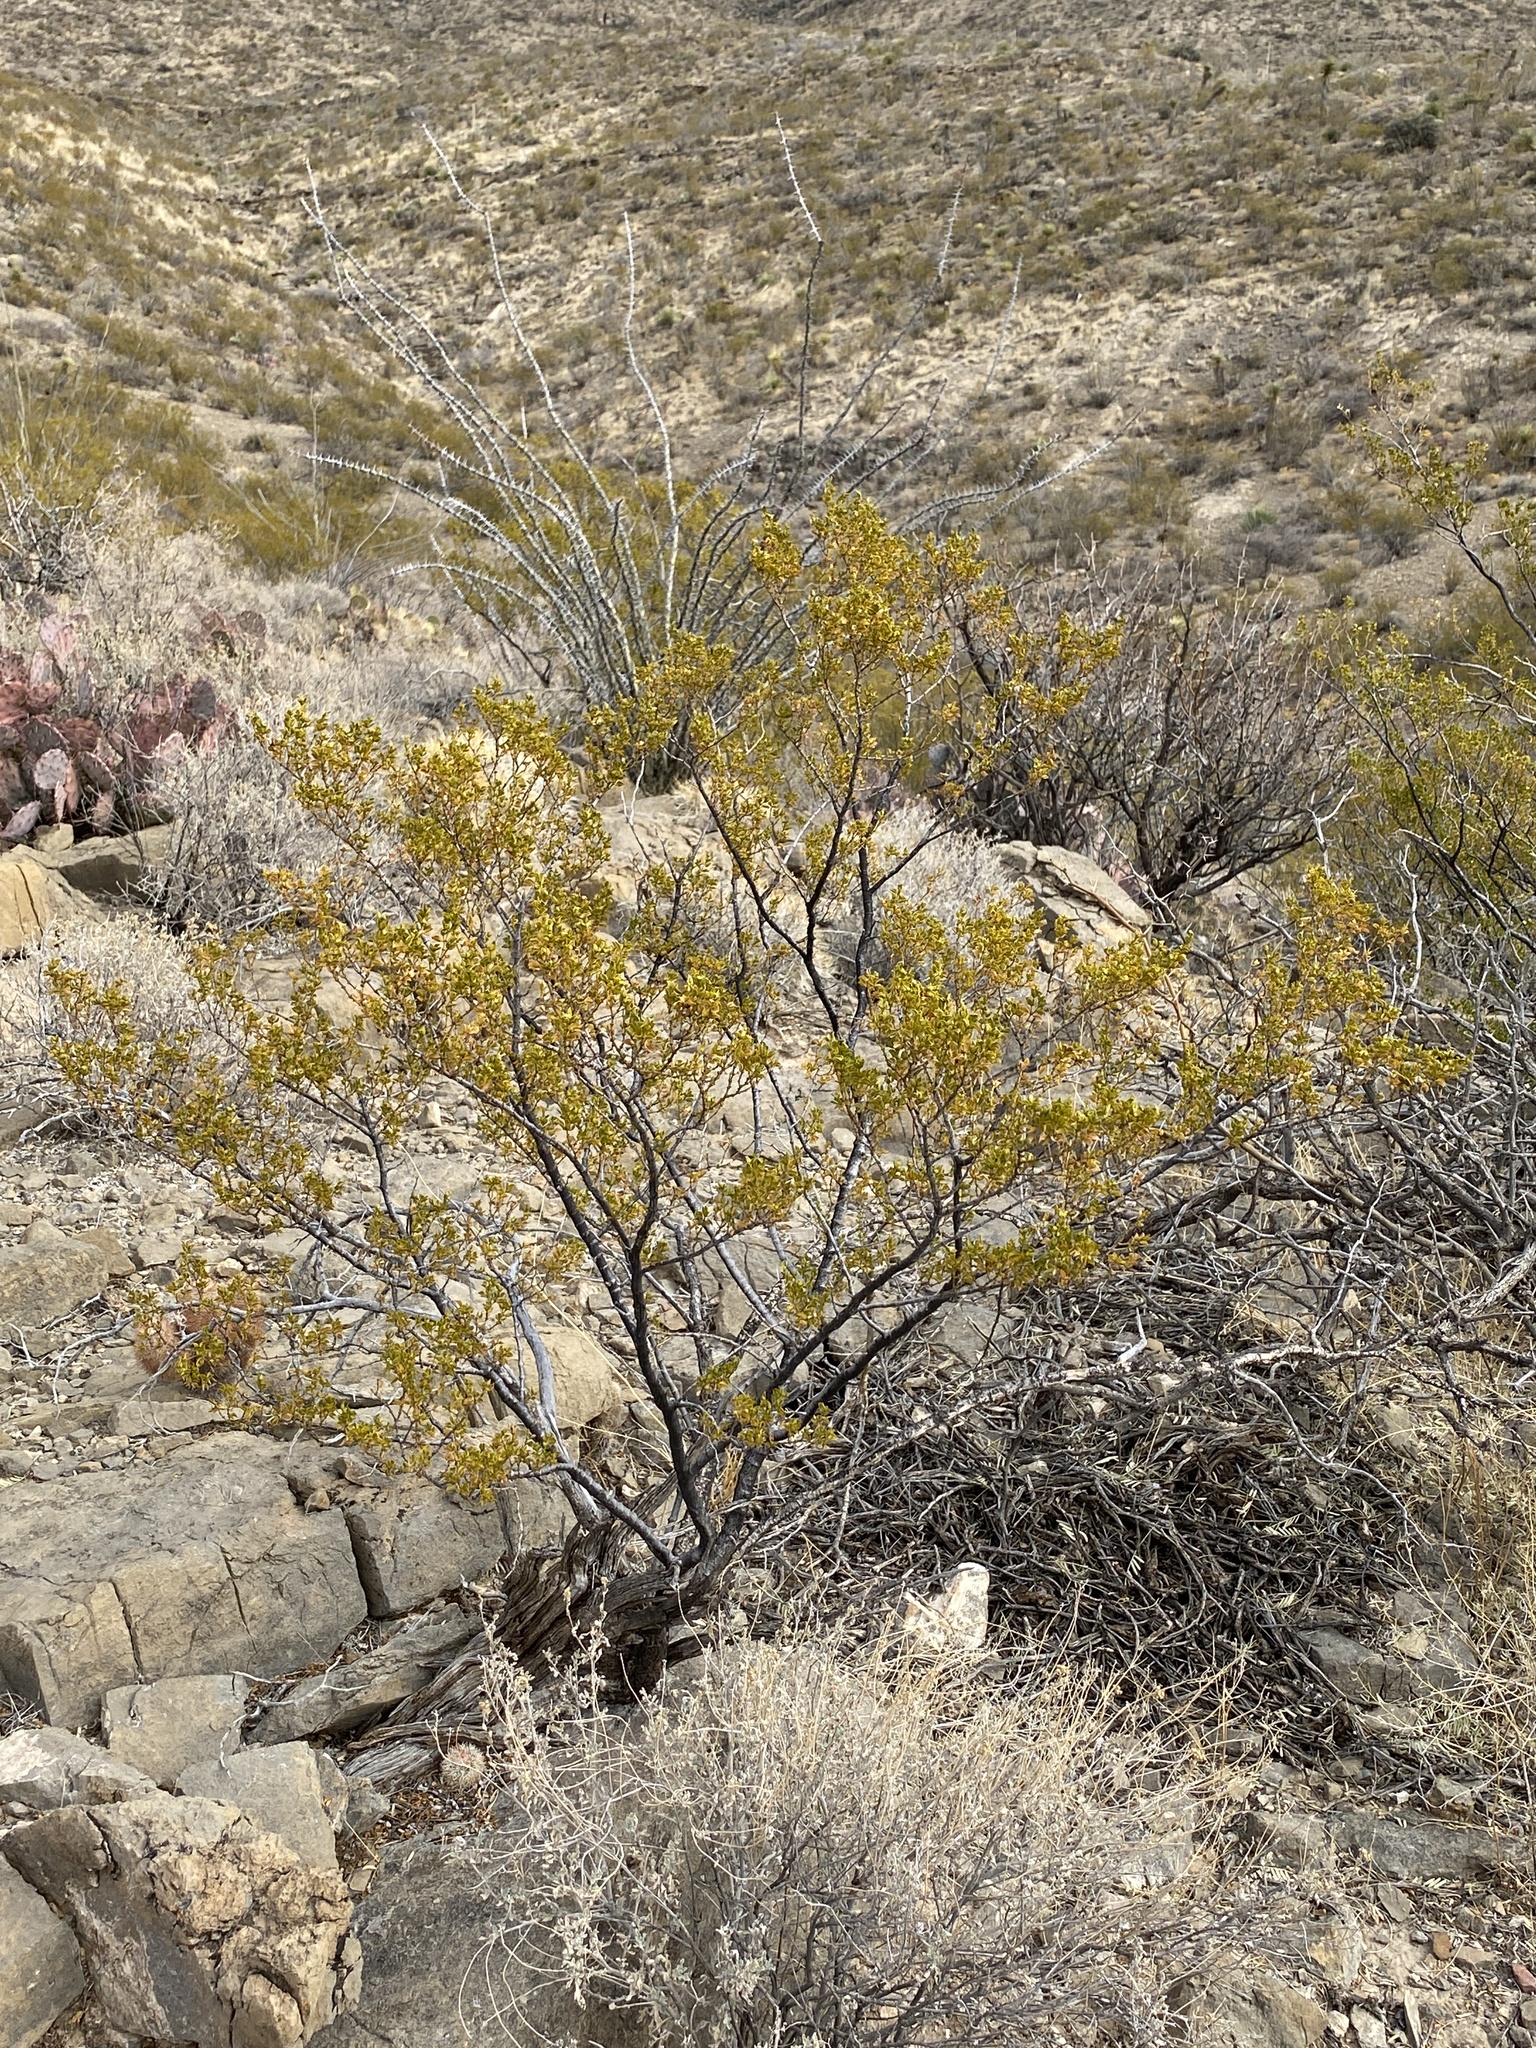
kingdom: Plantae
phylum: Tracheophyta
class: Magnoliopsida
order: Zygophyllales
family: Zygophyllaceae
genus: Larrea
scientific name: Larrea tridentata
